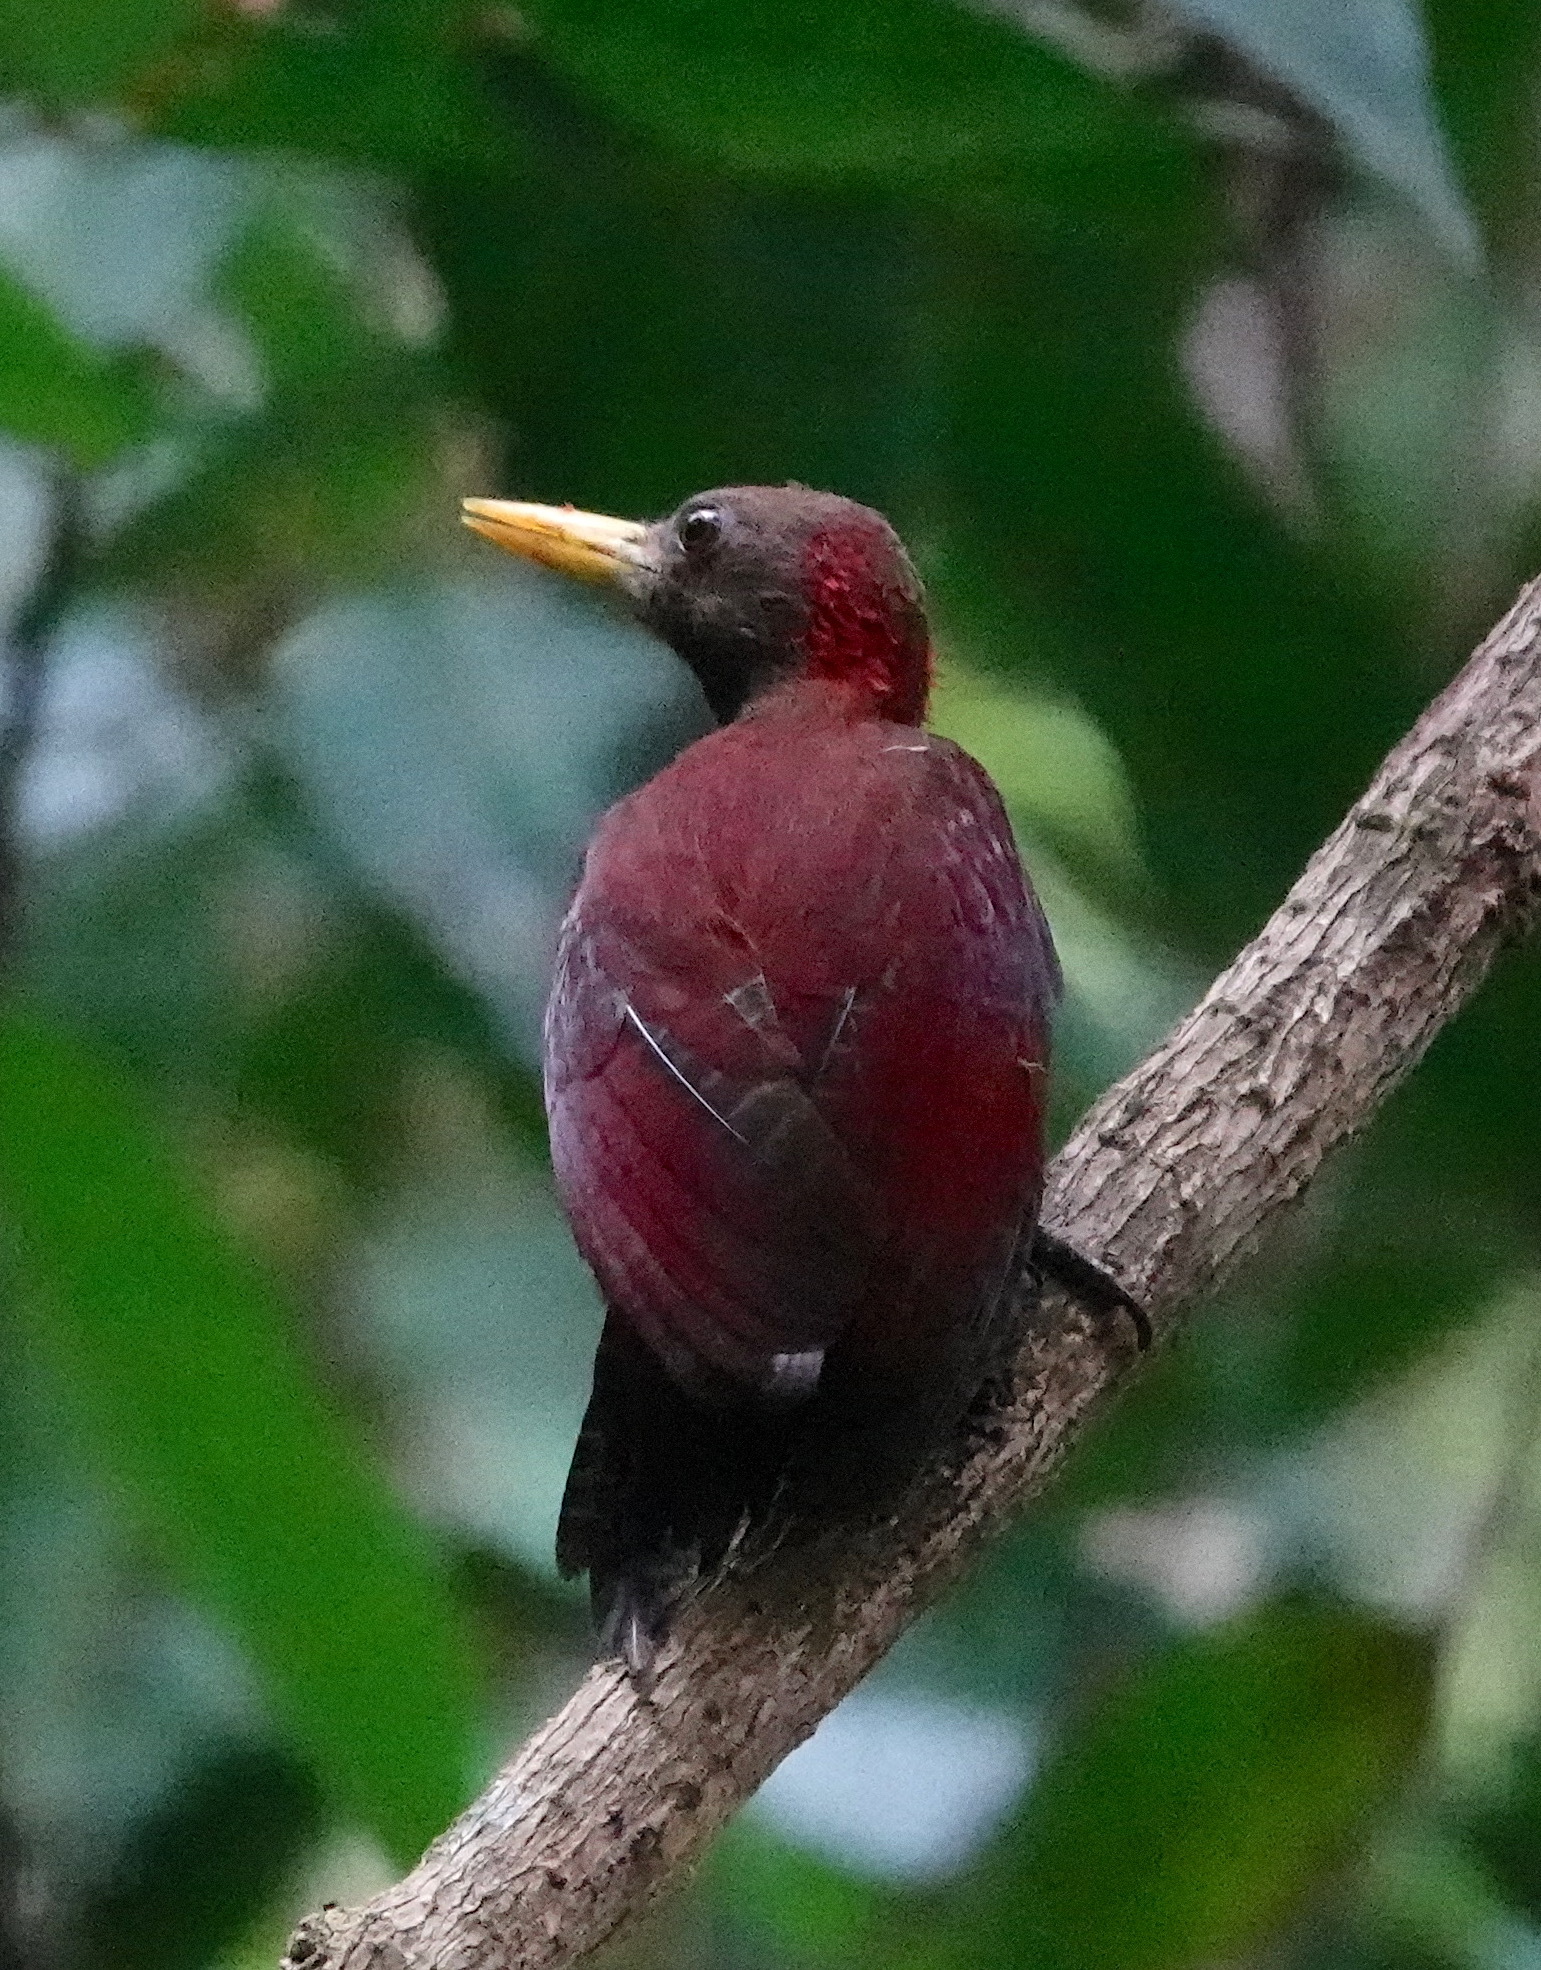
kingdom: Animalia
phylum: Chordata
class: Aves
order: Piciformes
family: Picidae
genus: Blythipicus
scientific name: Blythipicus rubiginosus
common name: Maroon woodpecker
